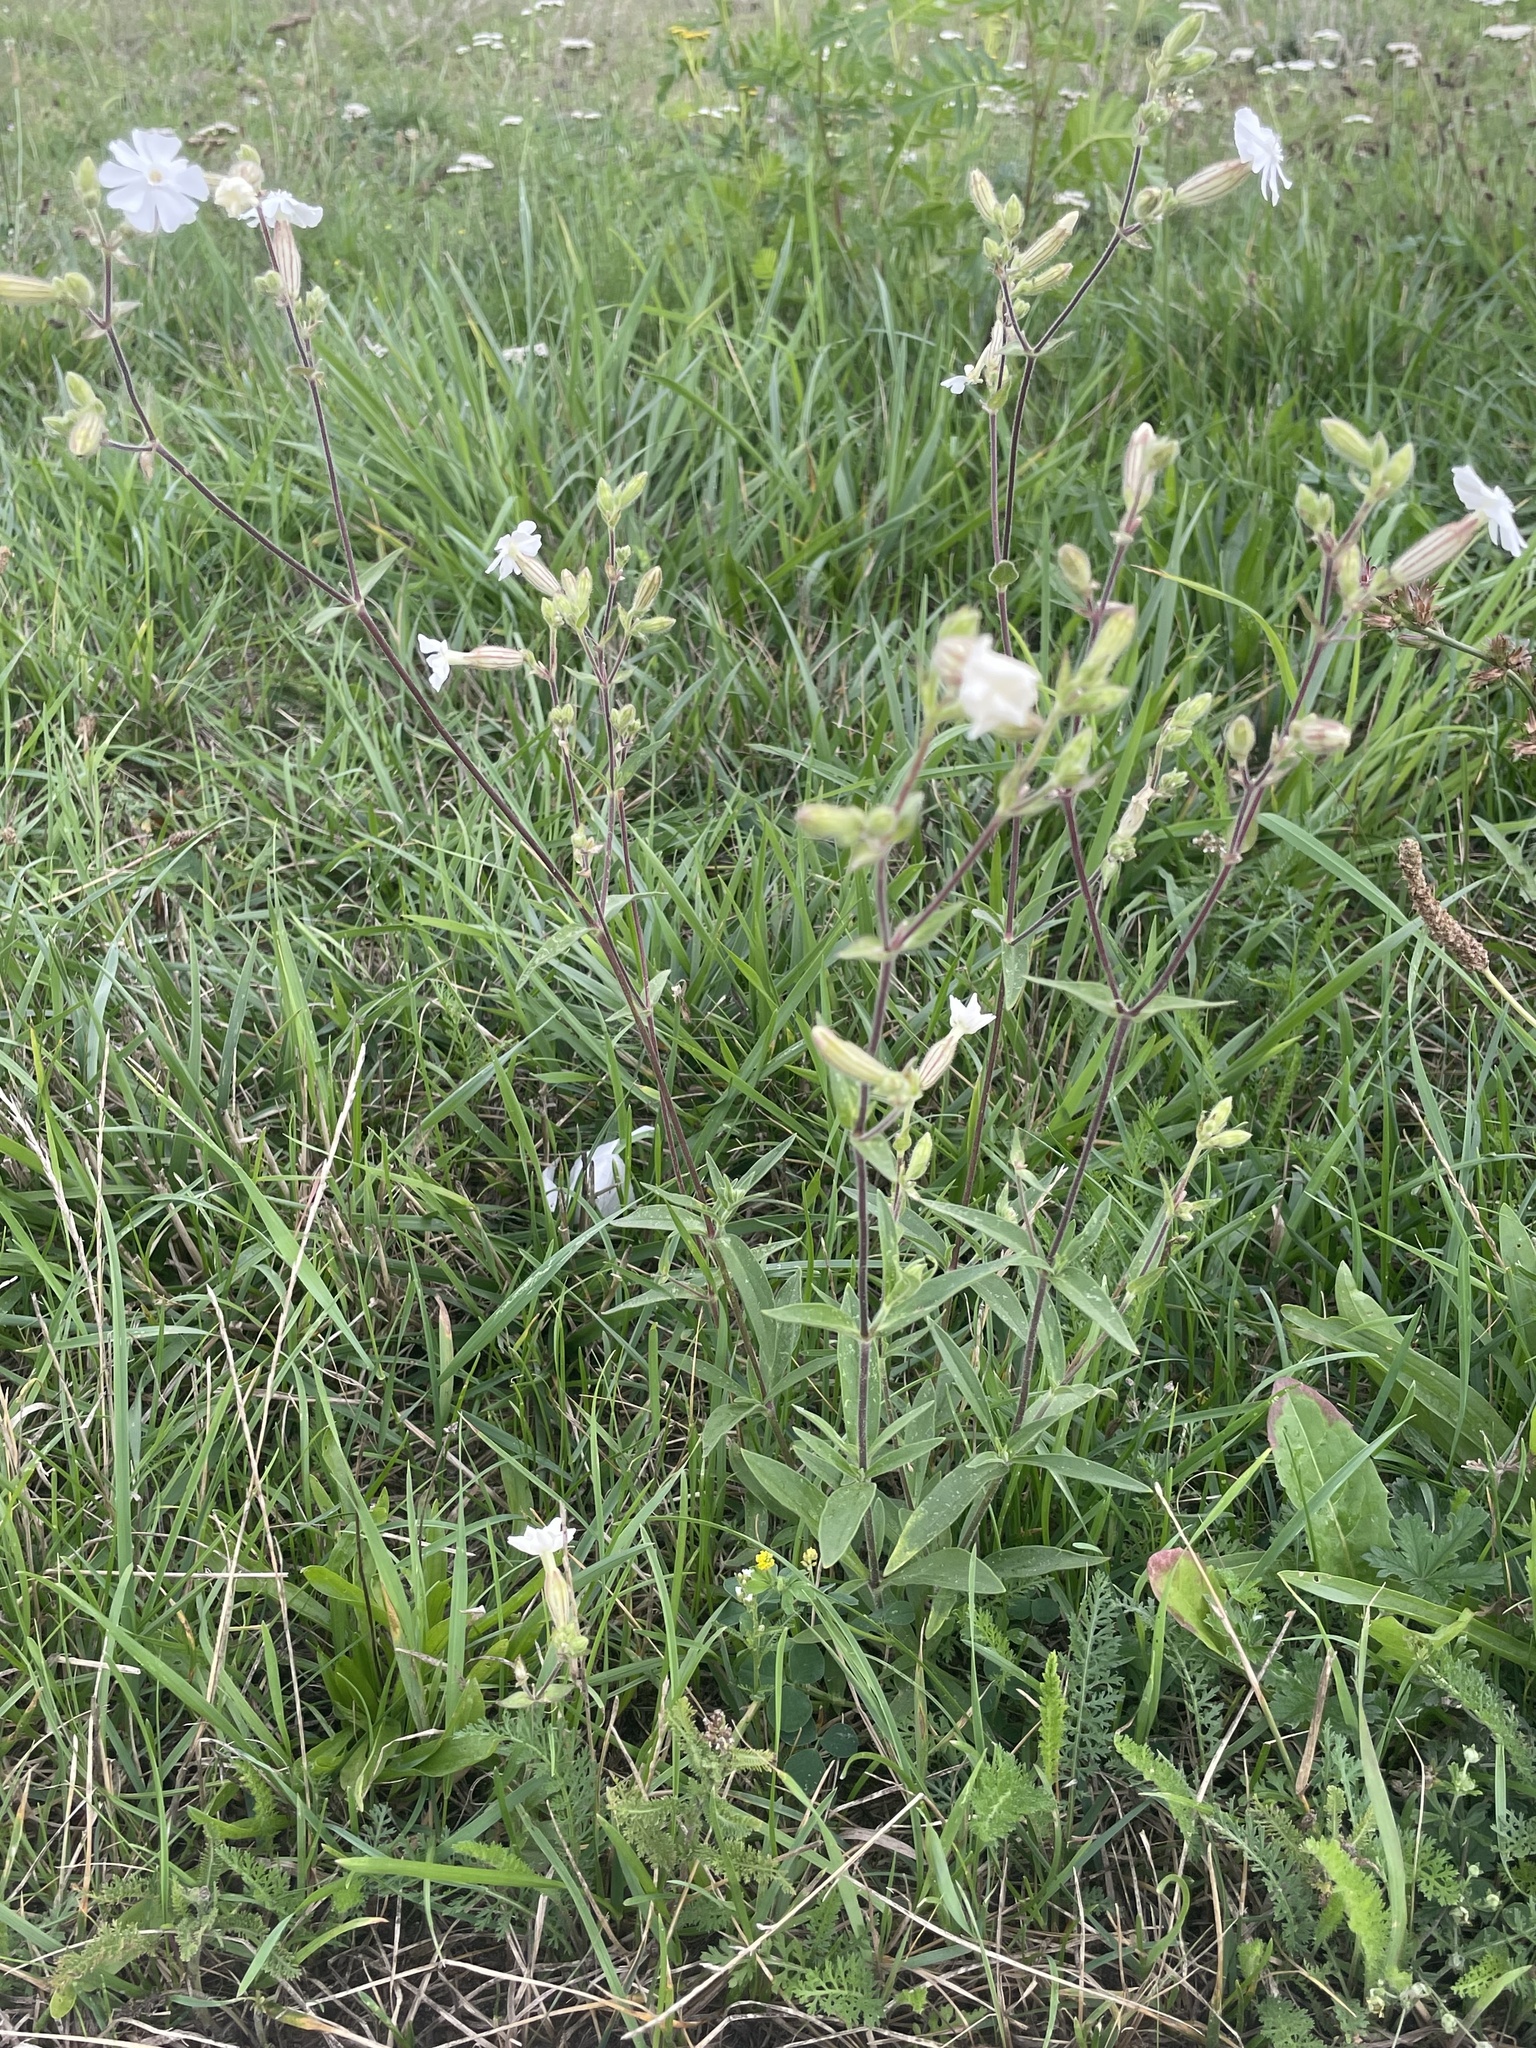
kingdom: Plantae
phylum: Tracheophyta
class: Magnoliopsida
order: Caryophyllales
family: Caryophyllaceae
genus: Silene
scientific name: Silene latifolia
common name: White campion
